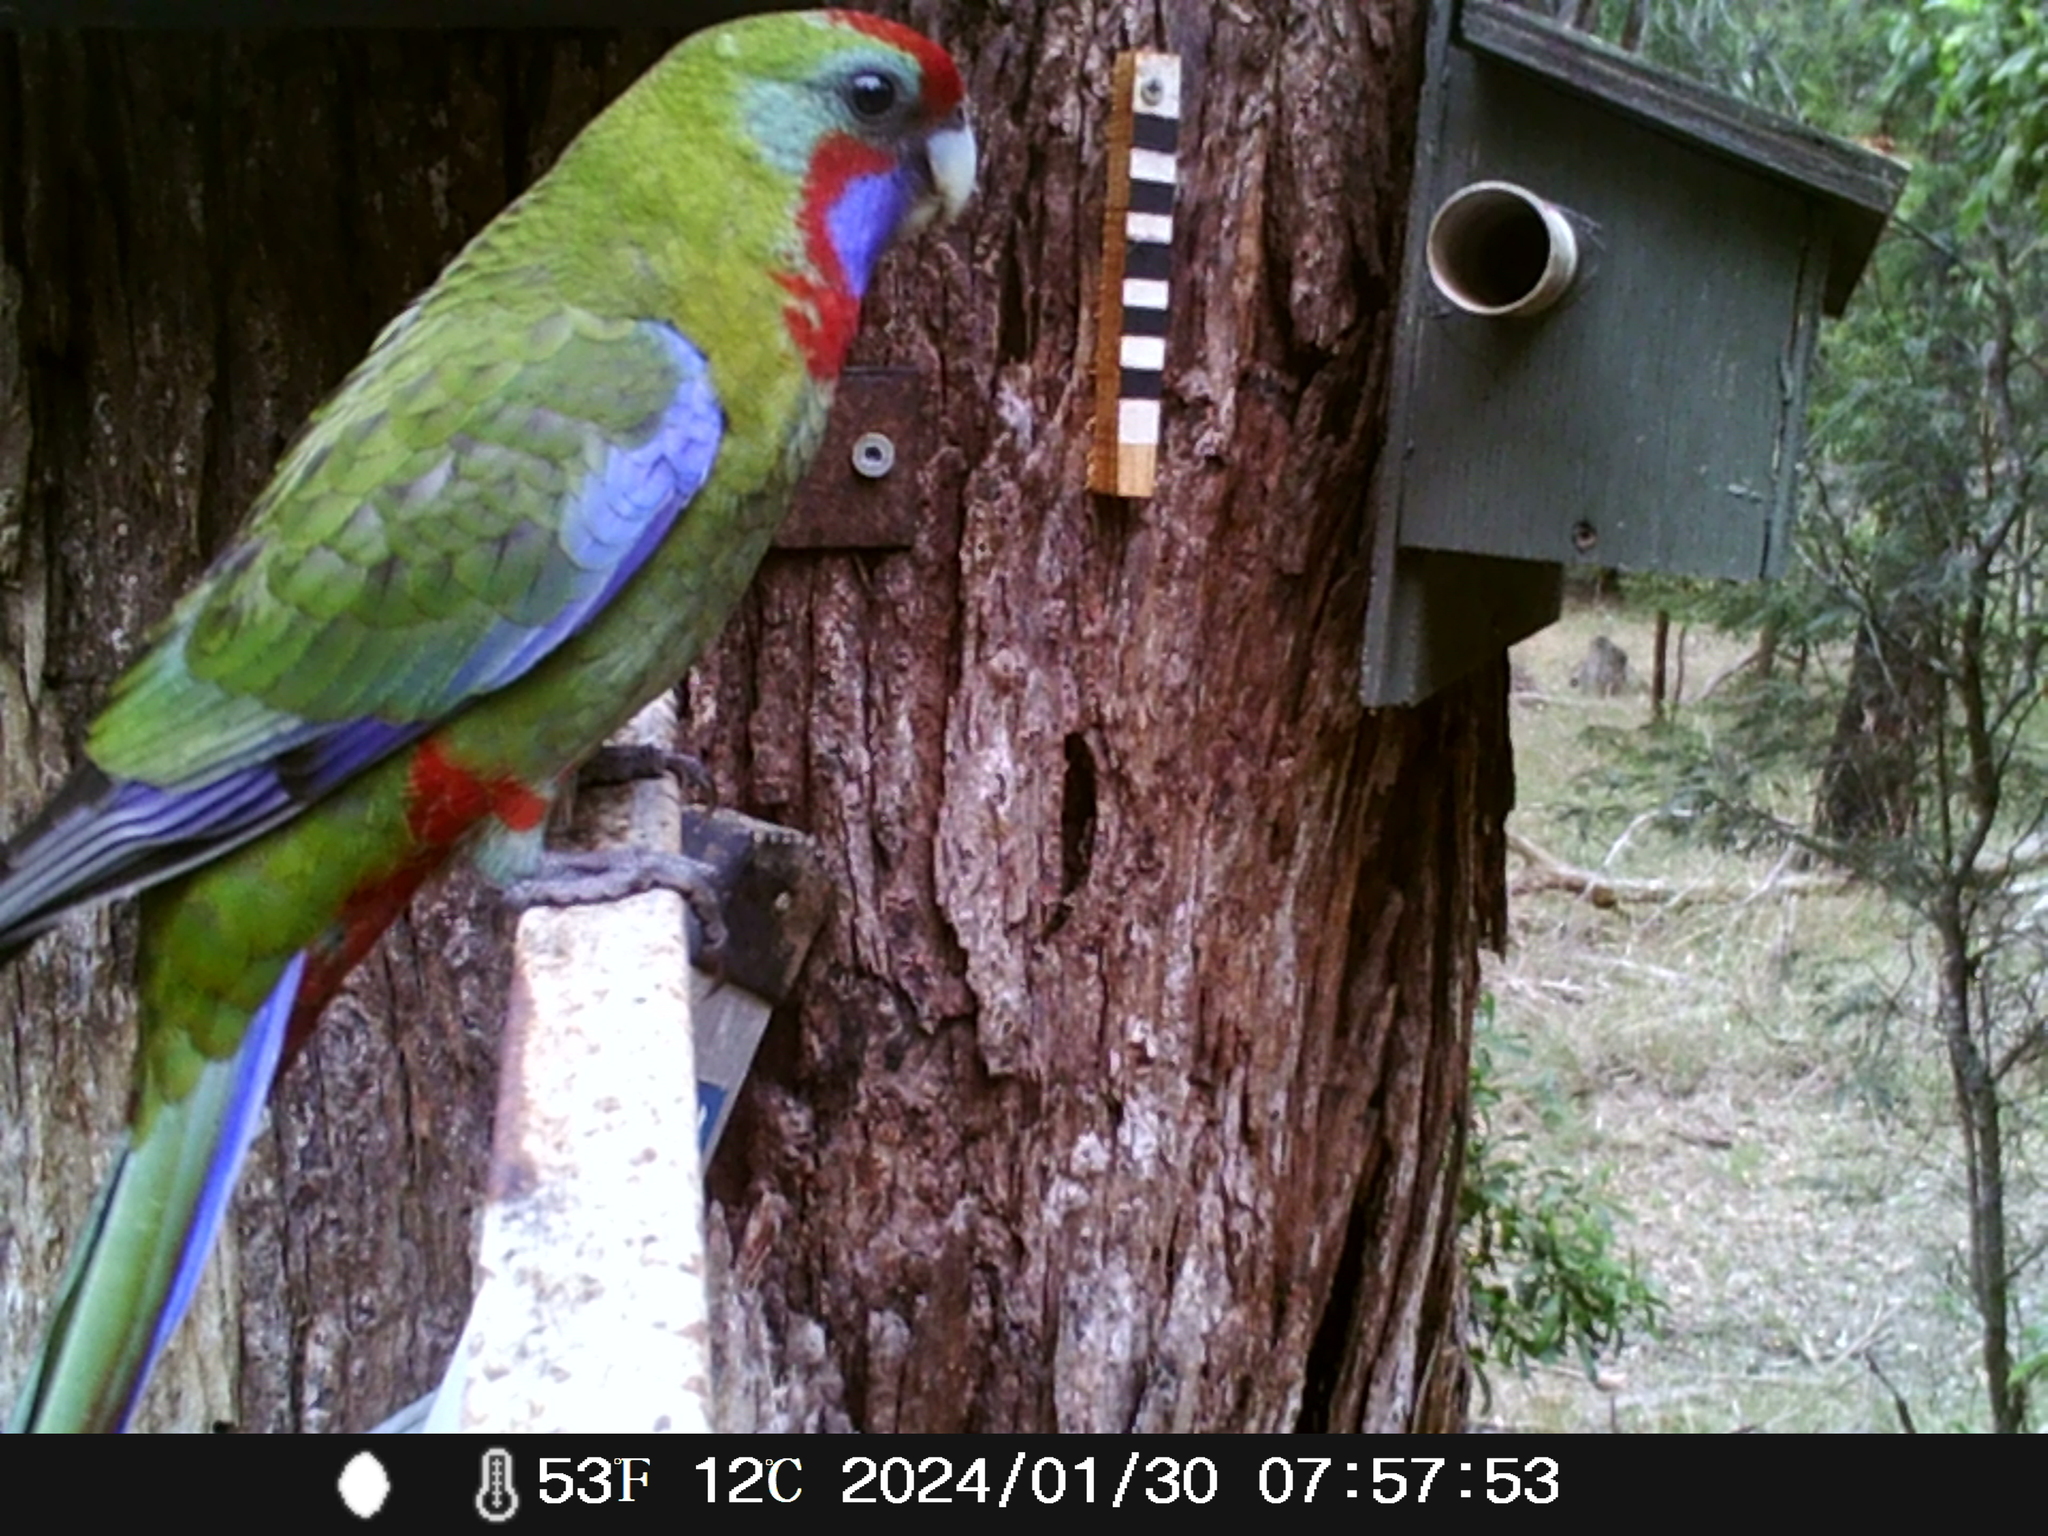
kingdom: Animalia
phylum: Chordata
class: Aves
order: Psittaciformes
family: Psittacidae
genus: Platycercus
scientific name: Platycercus elegans
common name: Crimson rosella
